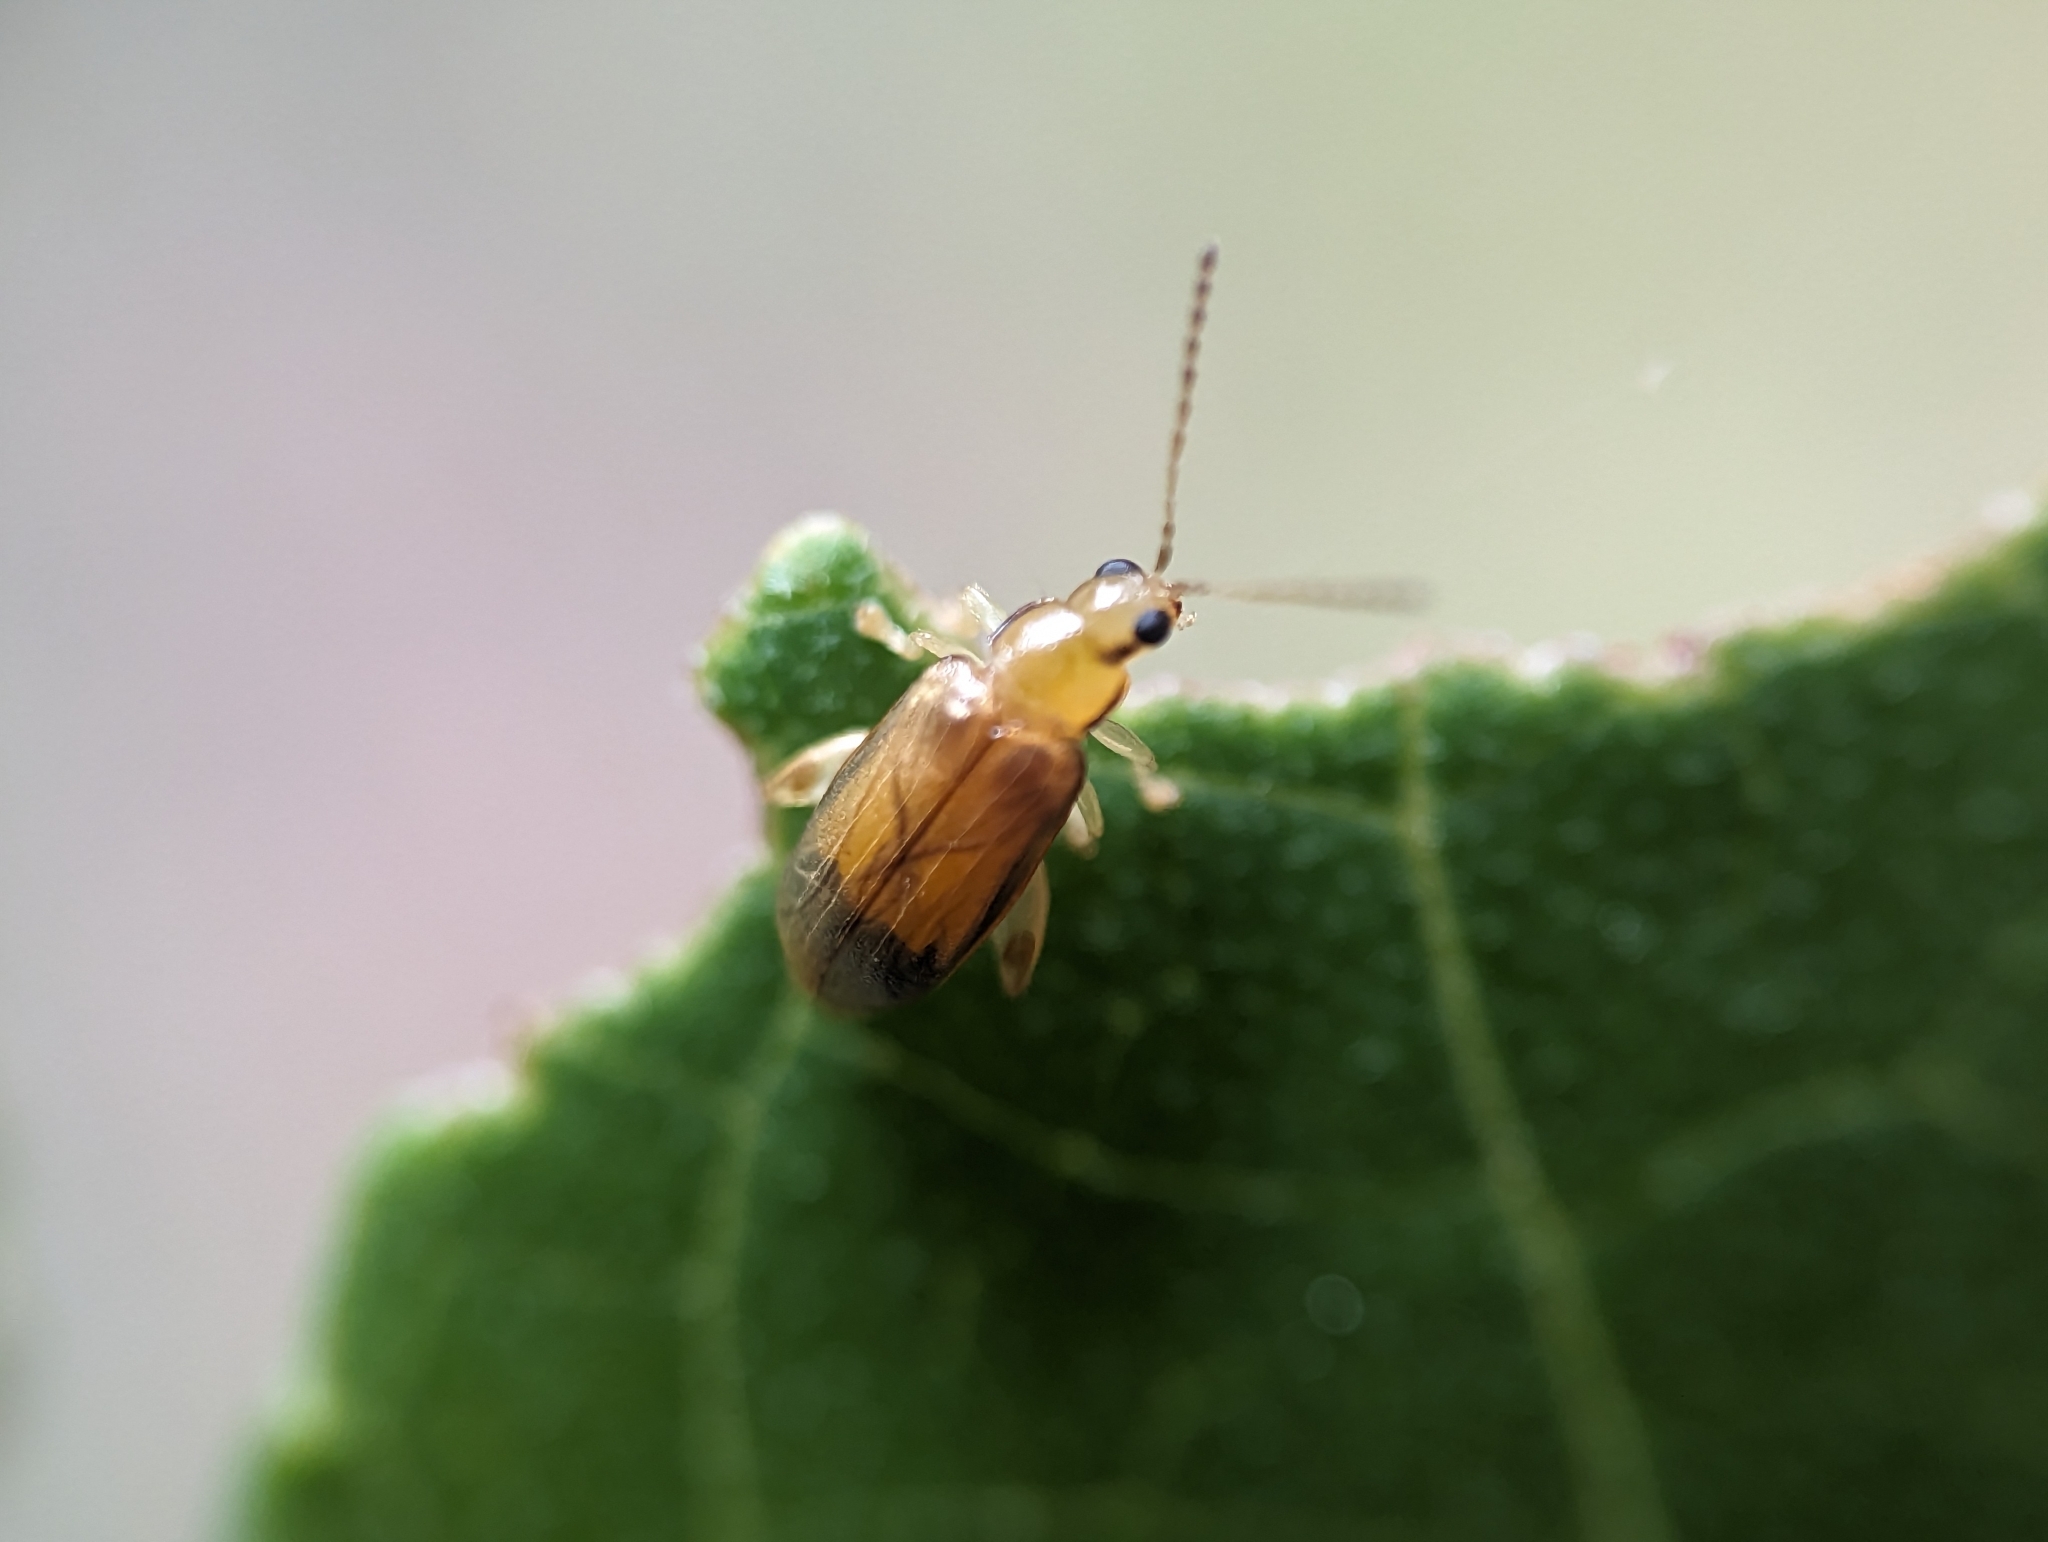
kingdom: Animalia
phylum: Arthropoda
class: Insecta
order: Coleoptera
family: Chrysomelidae
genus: Systena
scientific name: Systena marginalis
